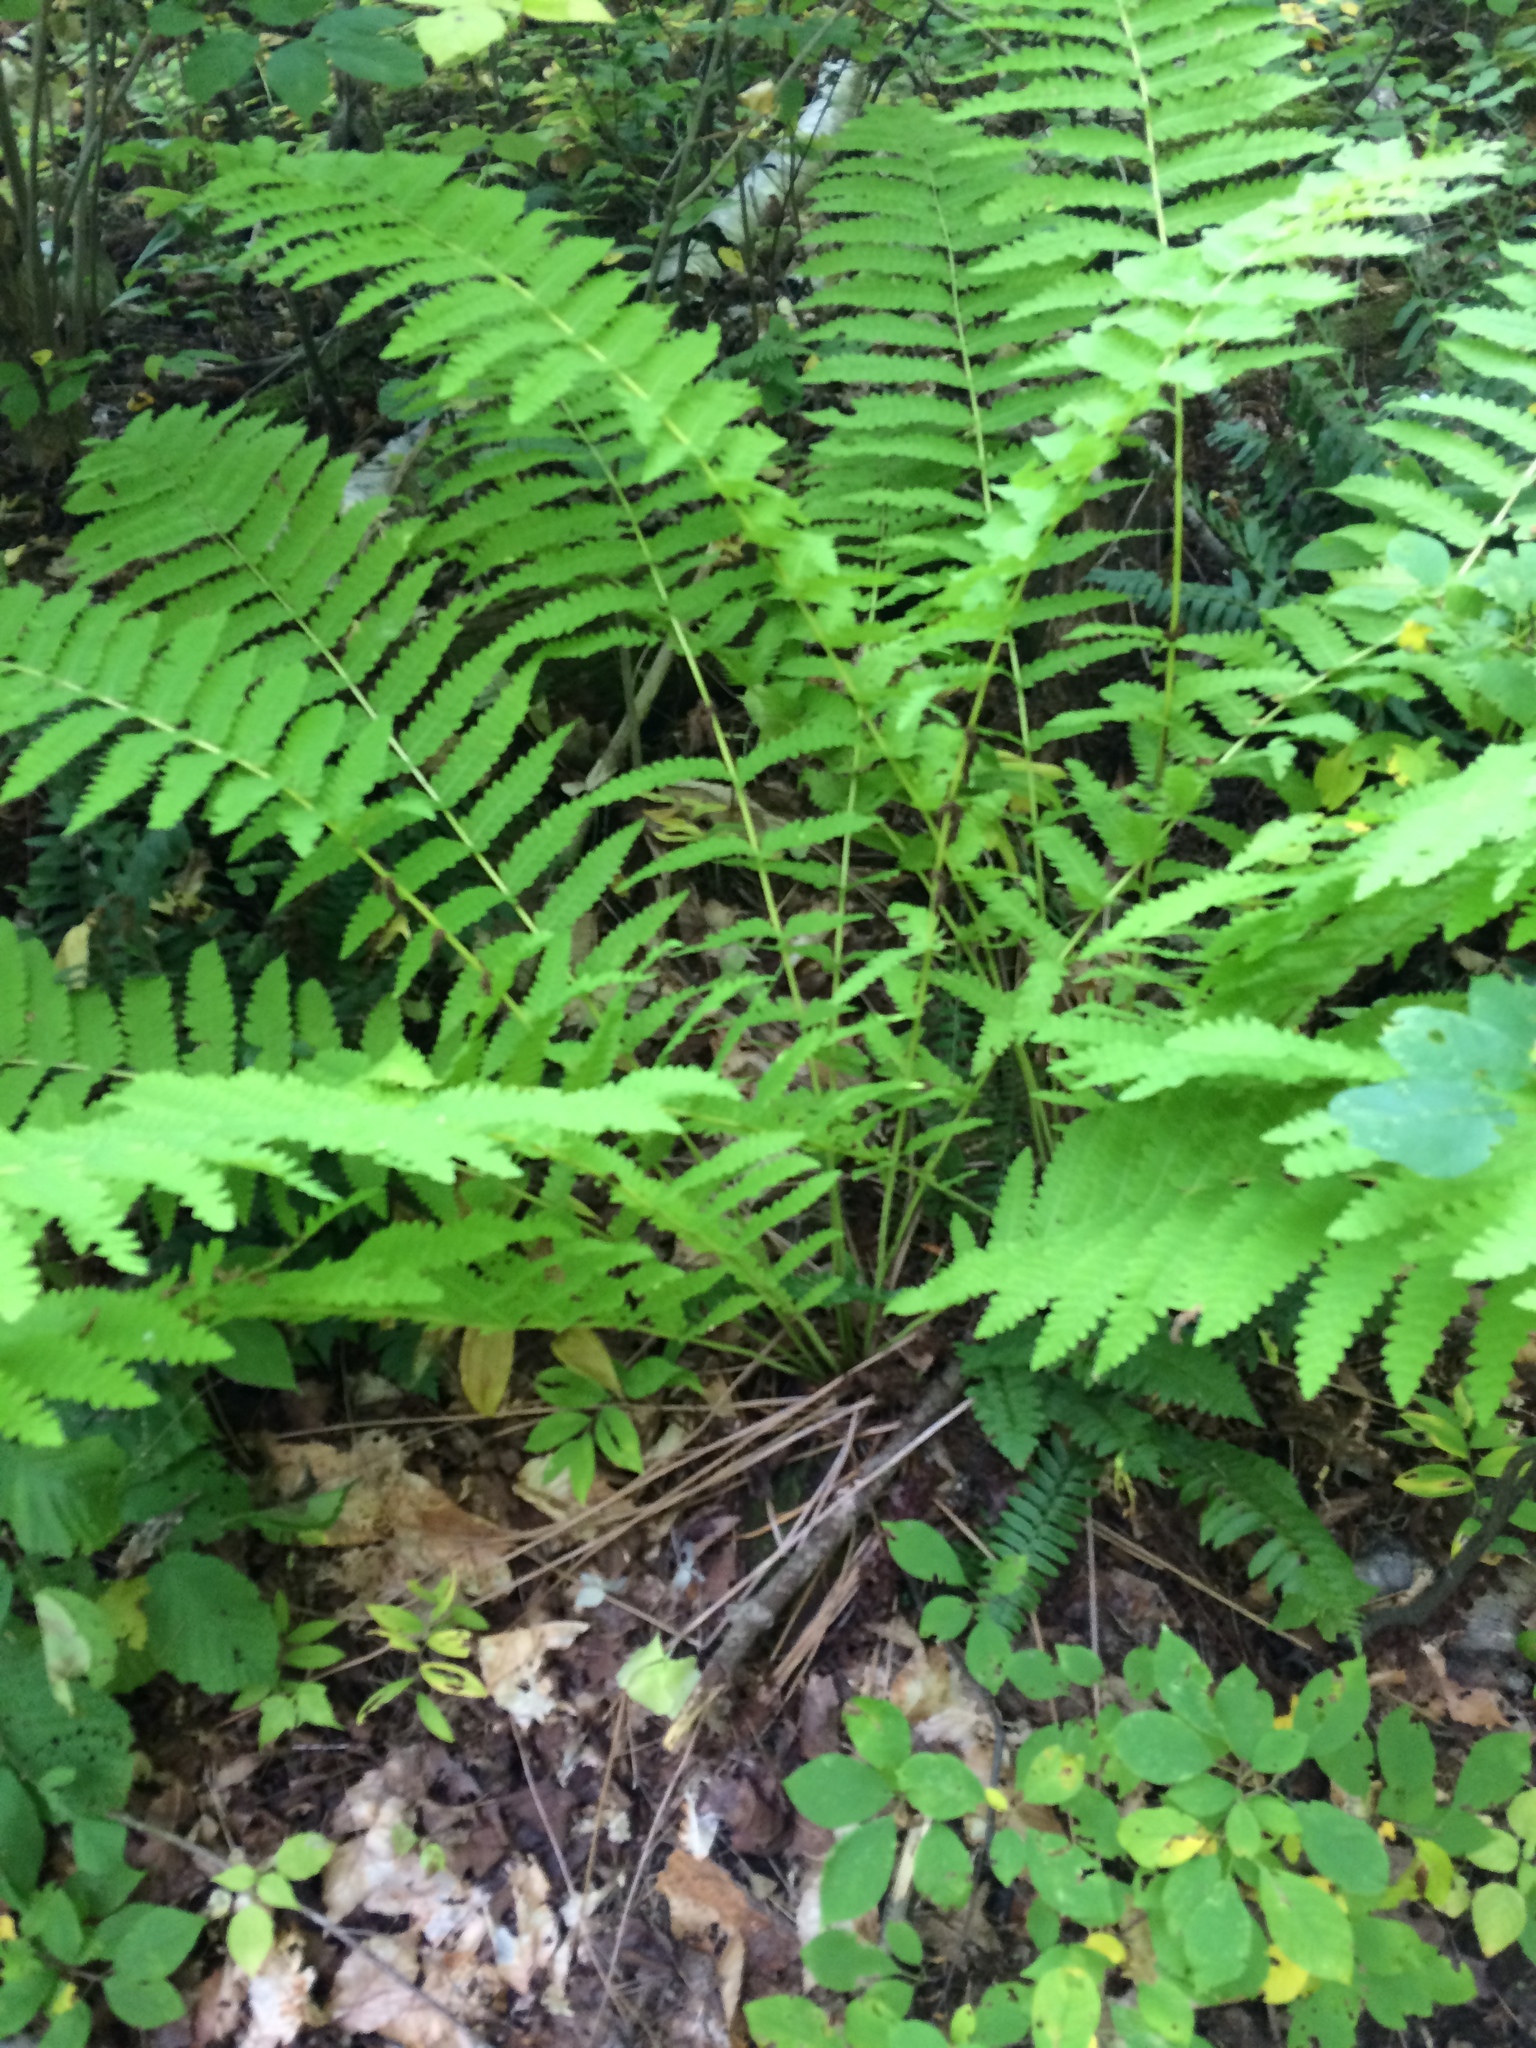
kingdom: Plantae
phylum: Tracheophyta
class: Polypodiopsida
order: Osmundales
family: Osmundaceae
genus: Claytosmunda
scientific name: Claytosmunda claytoniana
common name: Clayton's fern
